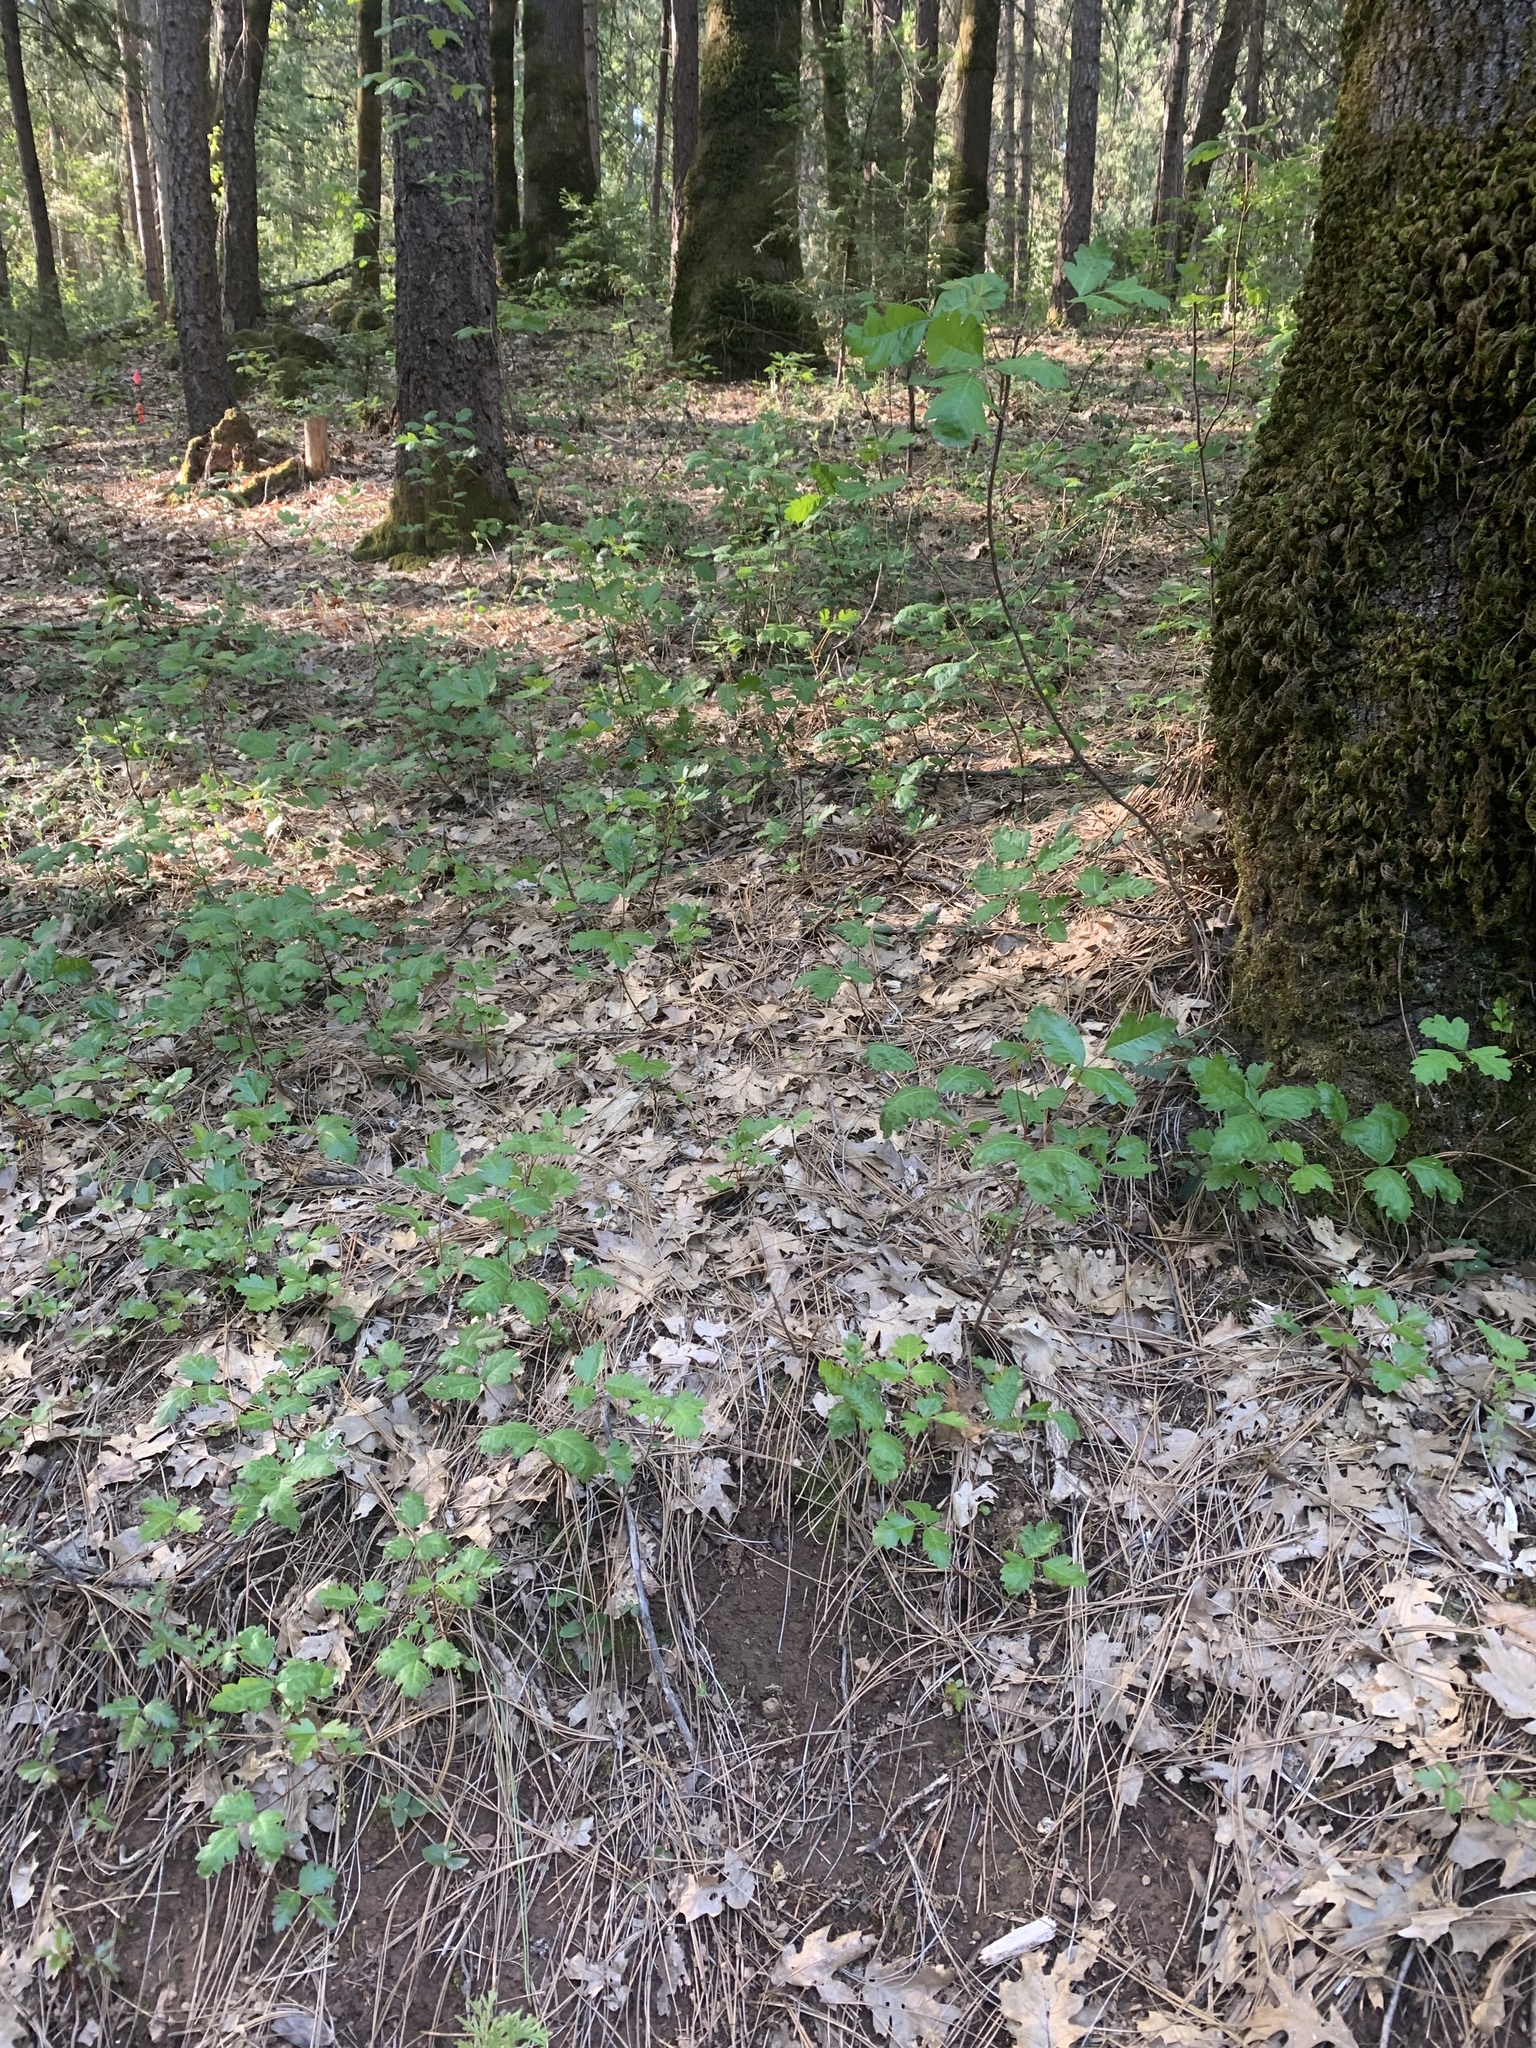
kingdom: Plantae
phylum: Tracheophyta
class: Magnoliopsida
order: Sapindales
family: Anacardiaceae
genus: Toxicodendron
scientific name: Toxicodendron diversilobum
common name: Pacific poison-oak
